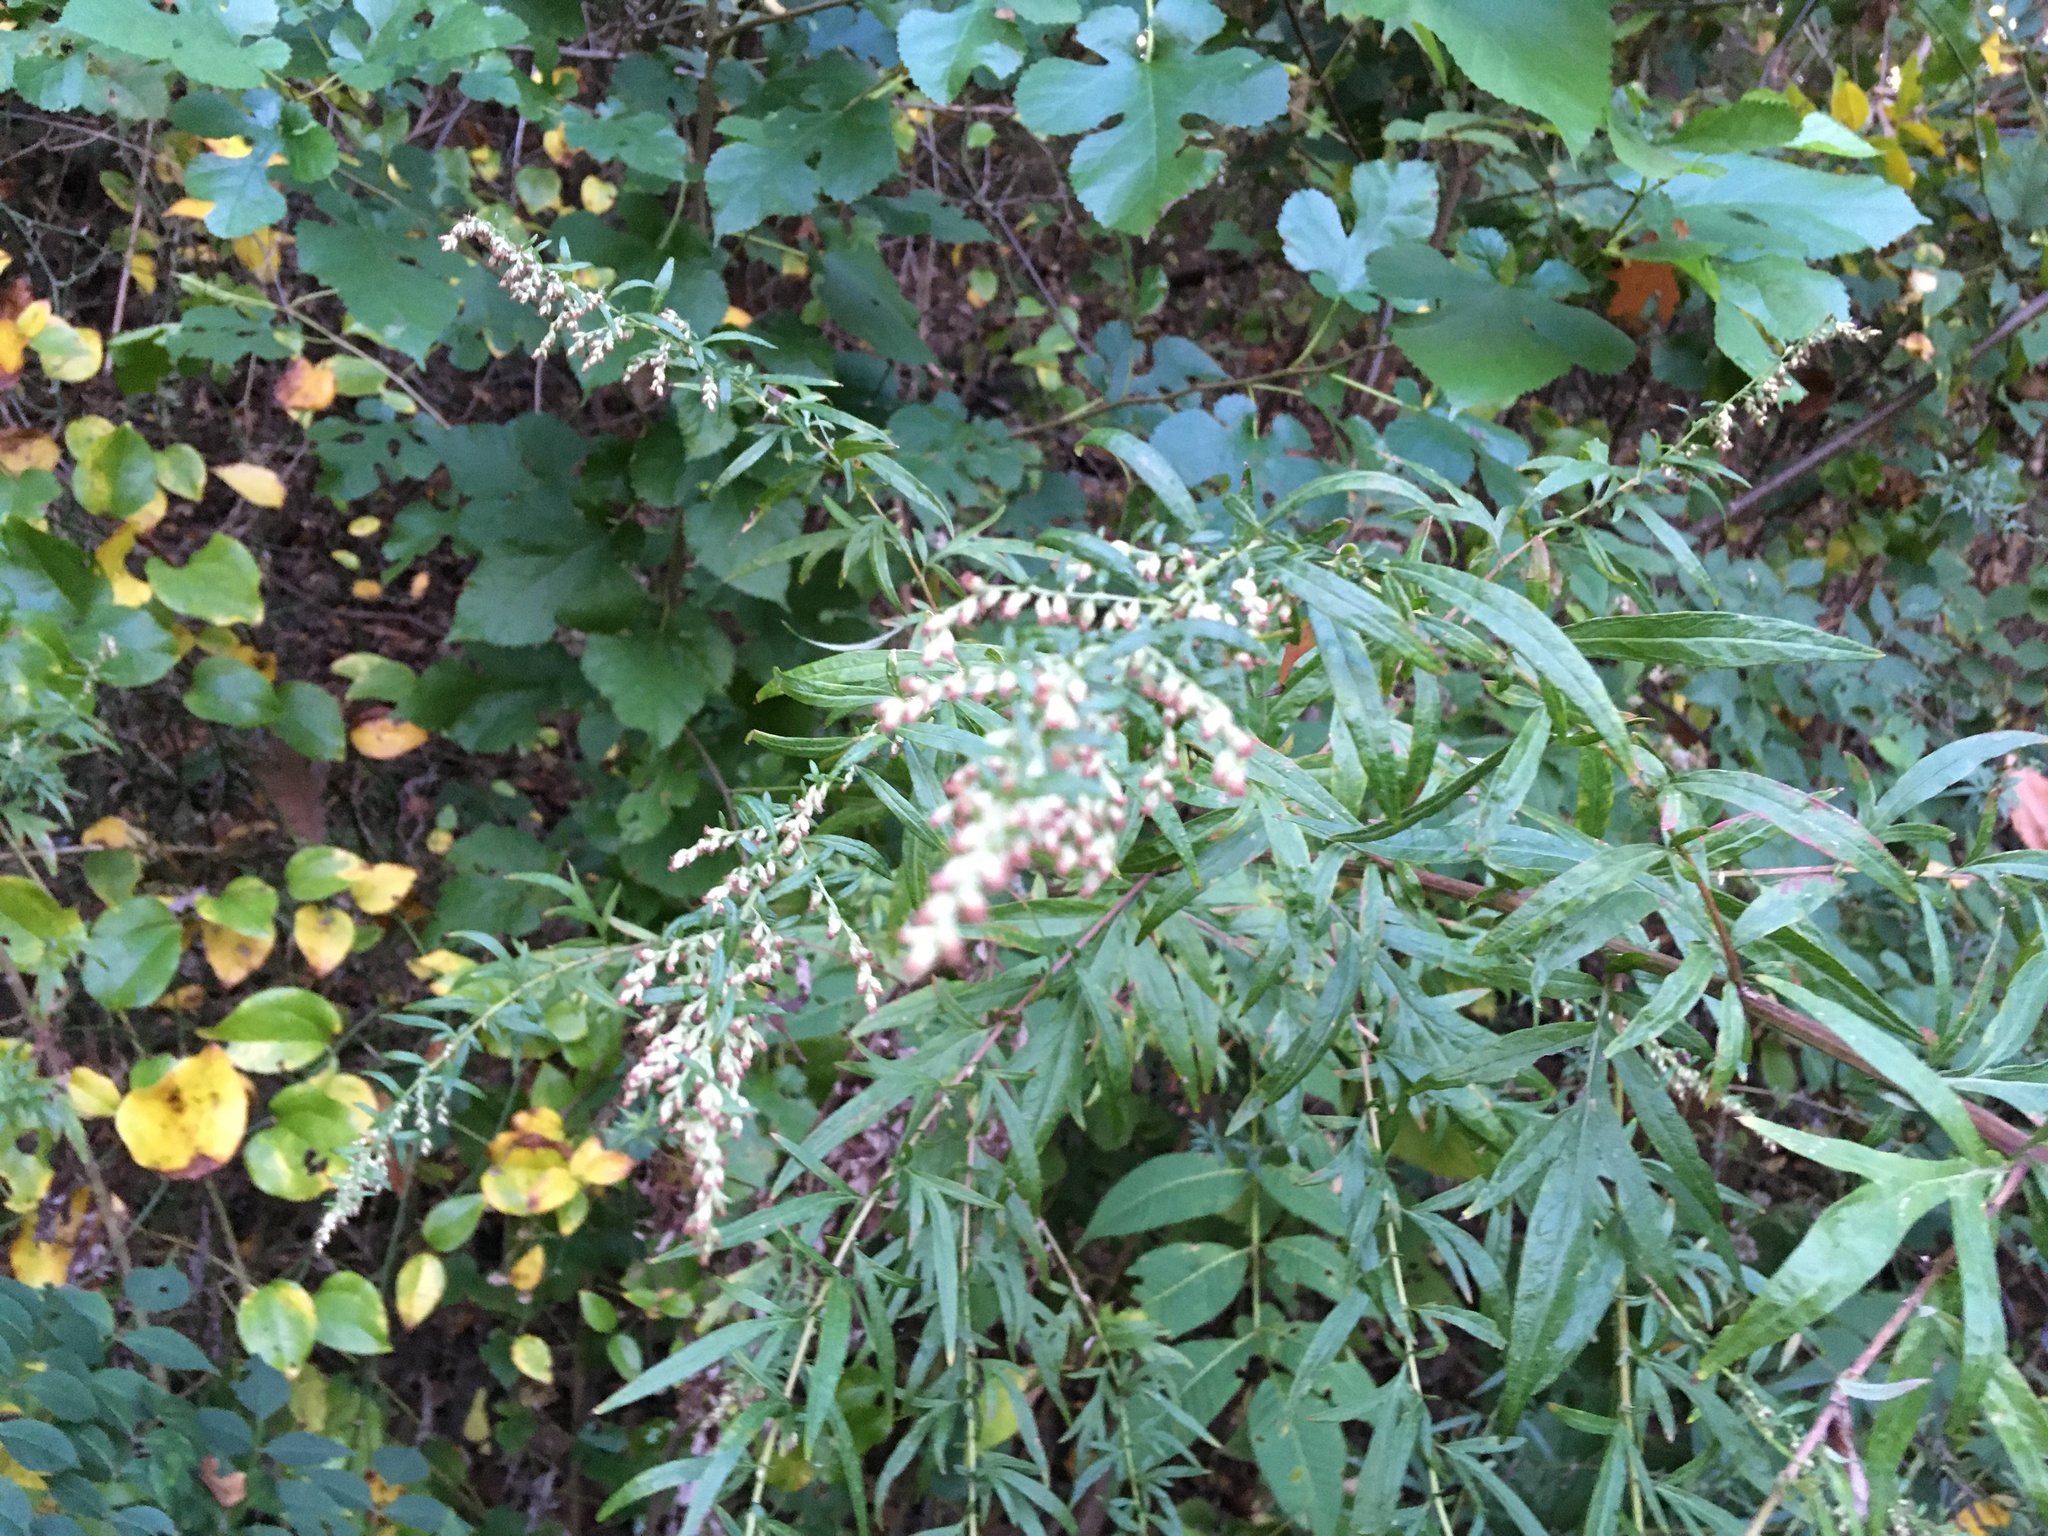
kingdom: Plantae
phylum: Tracheophyta
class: Magnoliopsida
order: Asterales
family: Asteraceae
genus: Artemisia
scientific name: Artemisia vulgaris
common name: Mugwort
